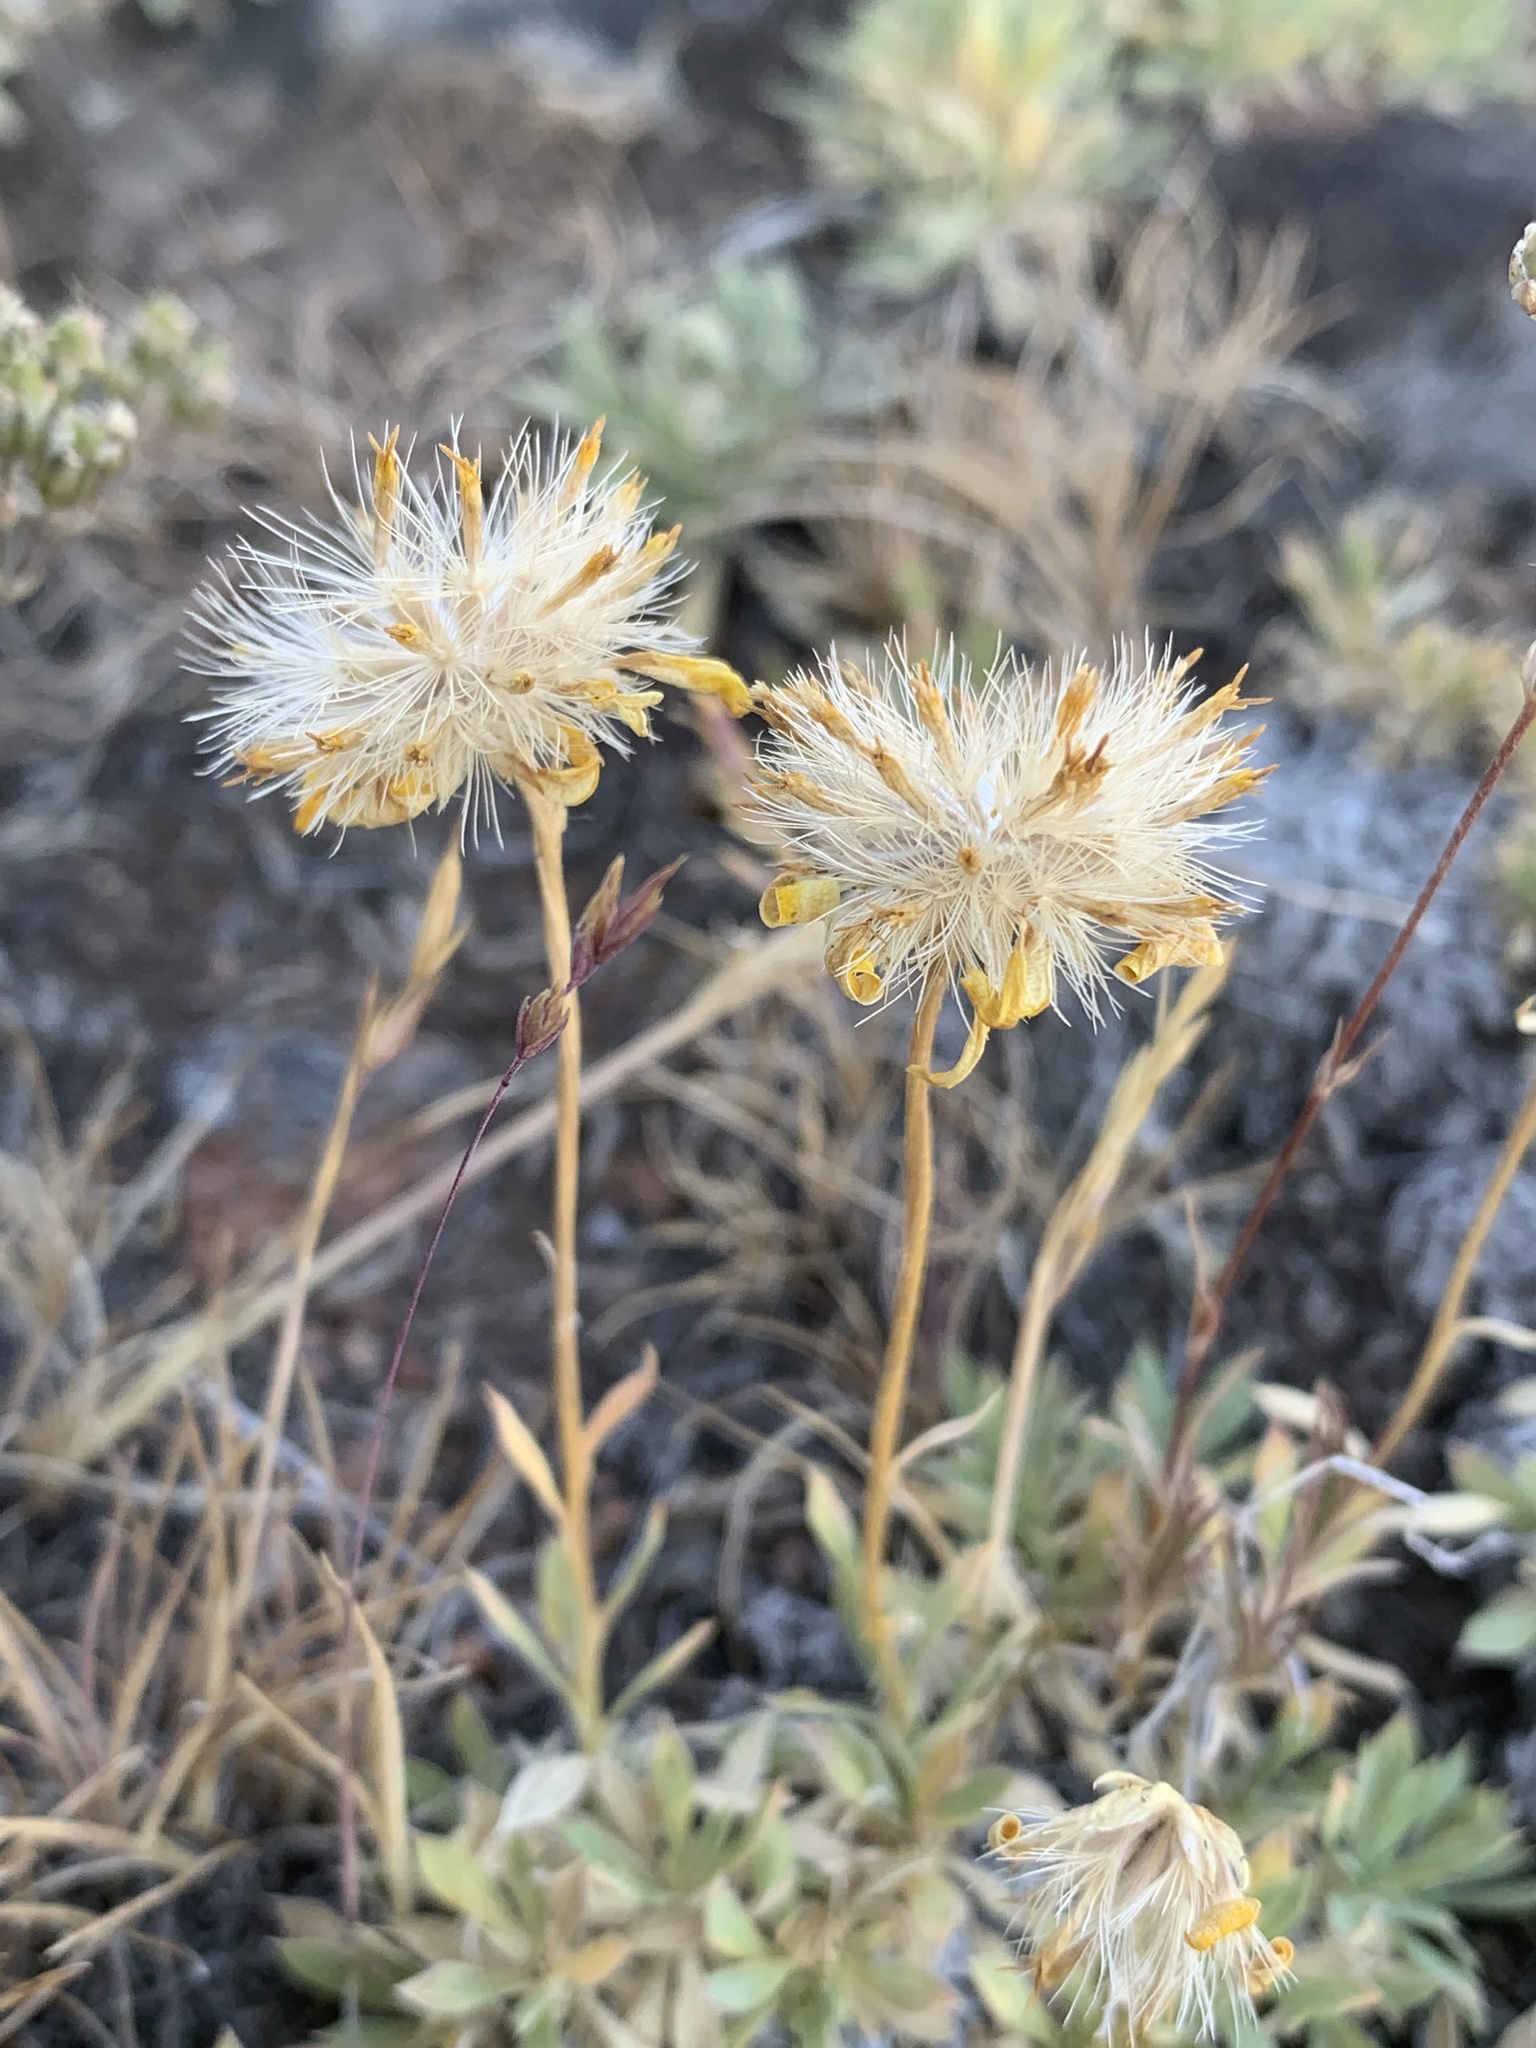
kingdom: Plantae
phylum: Tracheophyta
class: Magnoliopsida
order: Asterales
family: Asteraceae
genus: Stenotus
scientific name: Stenotus acaulis
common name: Stemless goldenweed
